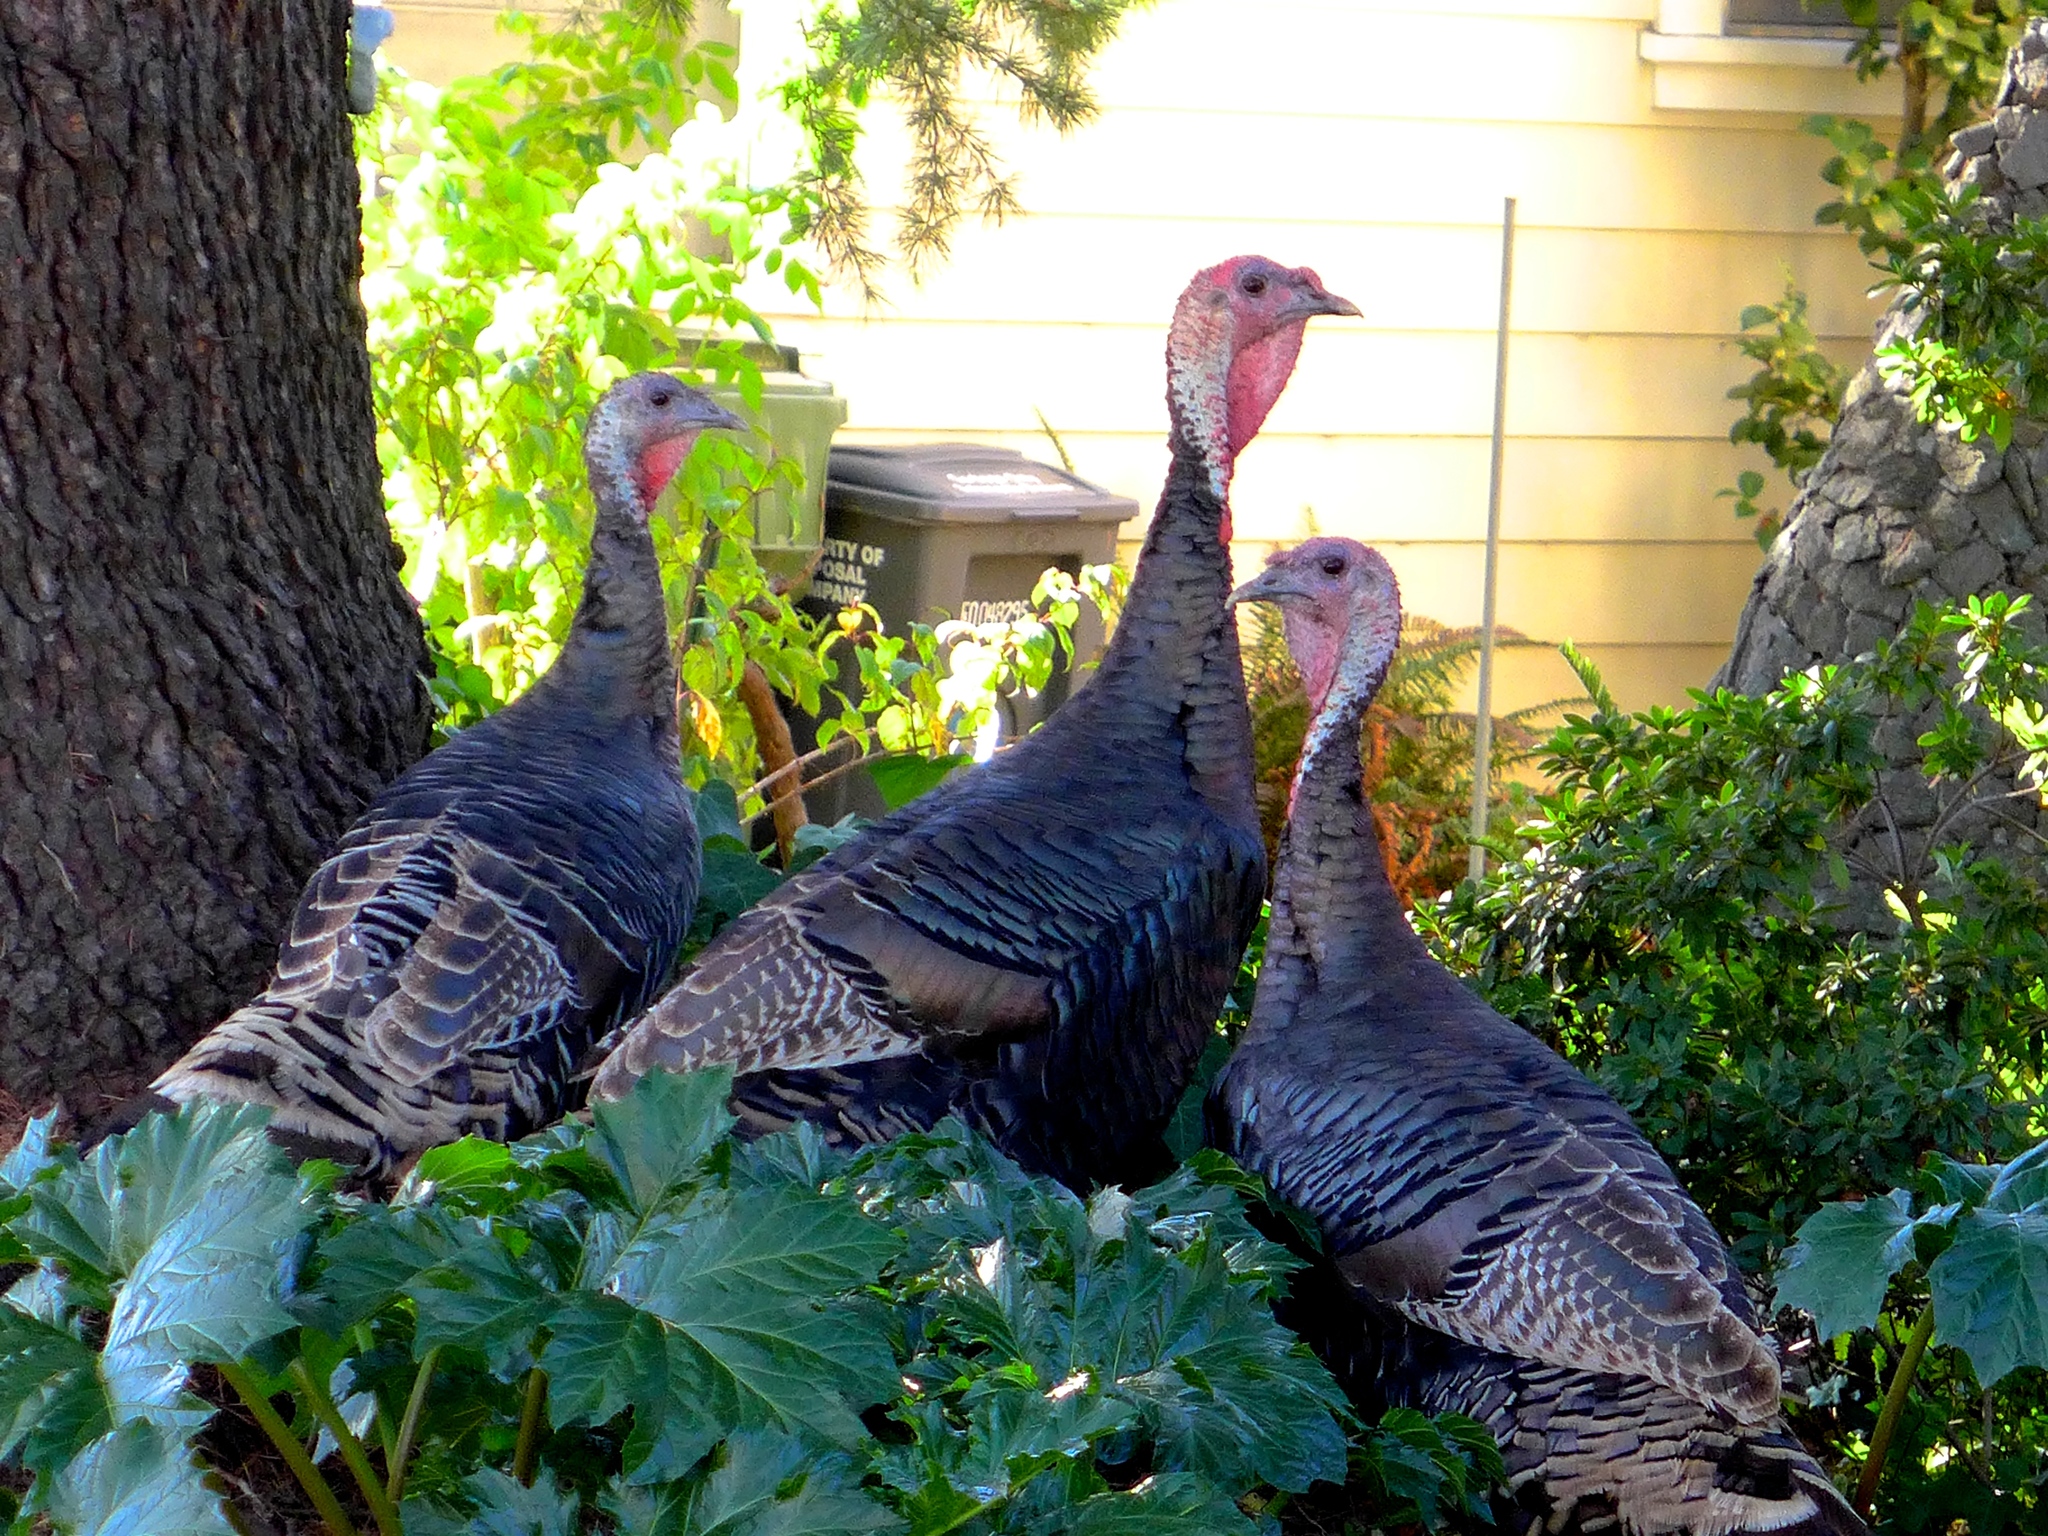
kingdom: Animalia
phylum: Chordata
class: Aves
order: Galliformes
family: Phasianidae
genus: Meleagris
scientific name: Meleagris gallopavo
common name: Wild turkey
